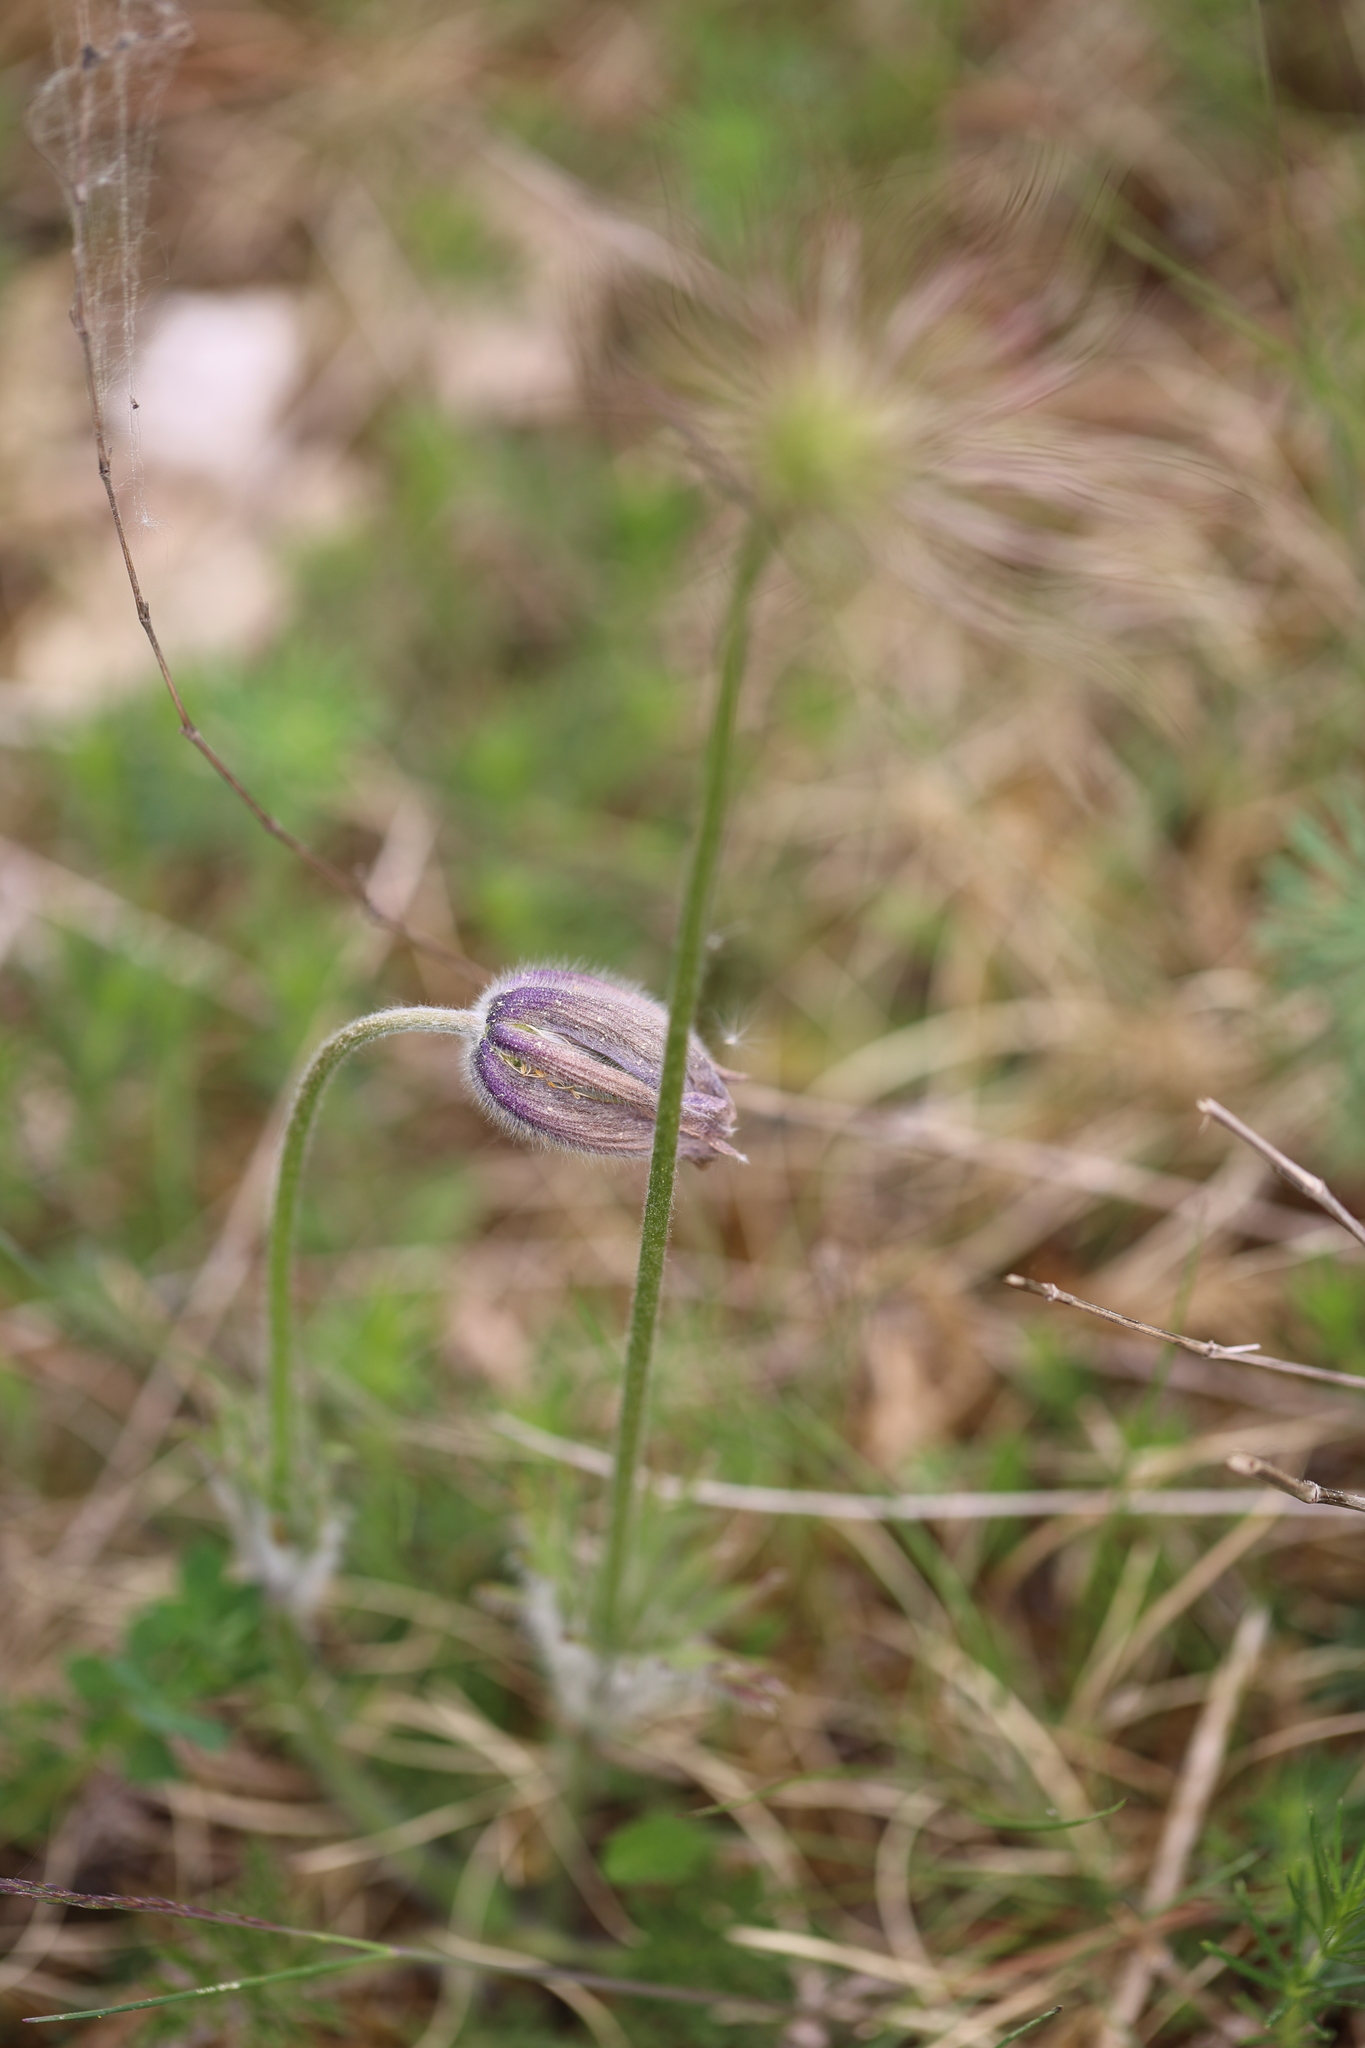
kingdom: Plantae
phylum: Tracheophyta
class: Magnoliopsida
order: Ranunculales
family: Ranunculaceae
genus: Pulsatilla
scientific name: Pulsatilla vulgaris
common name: Pasqueflower
